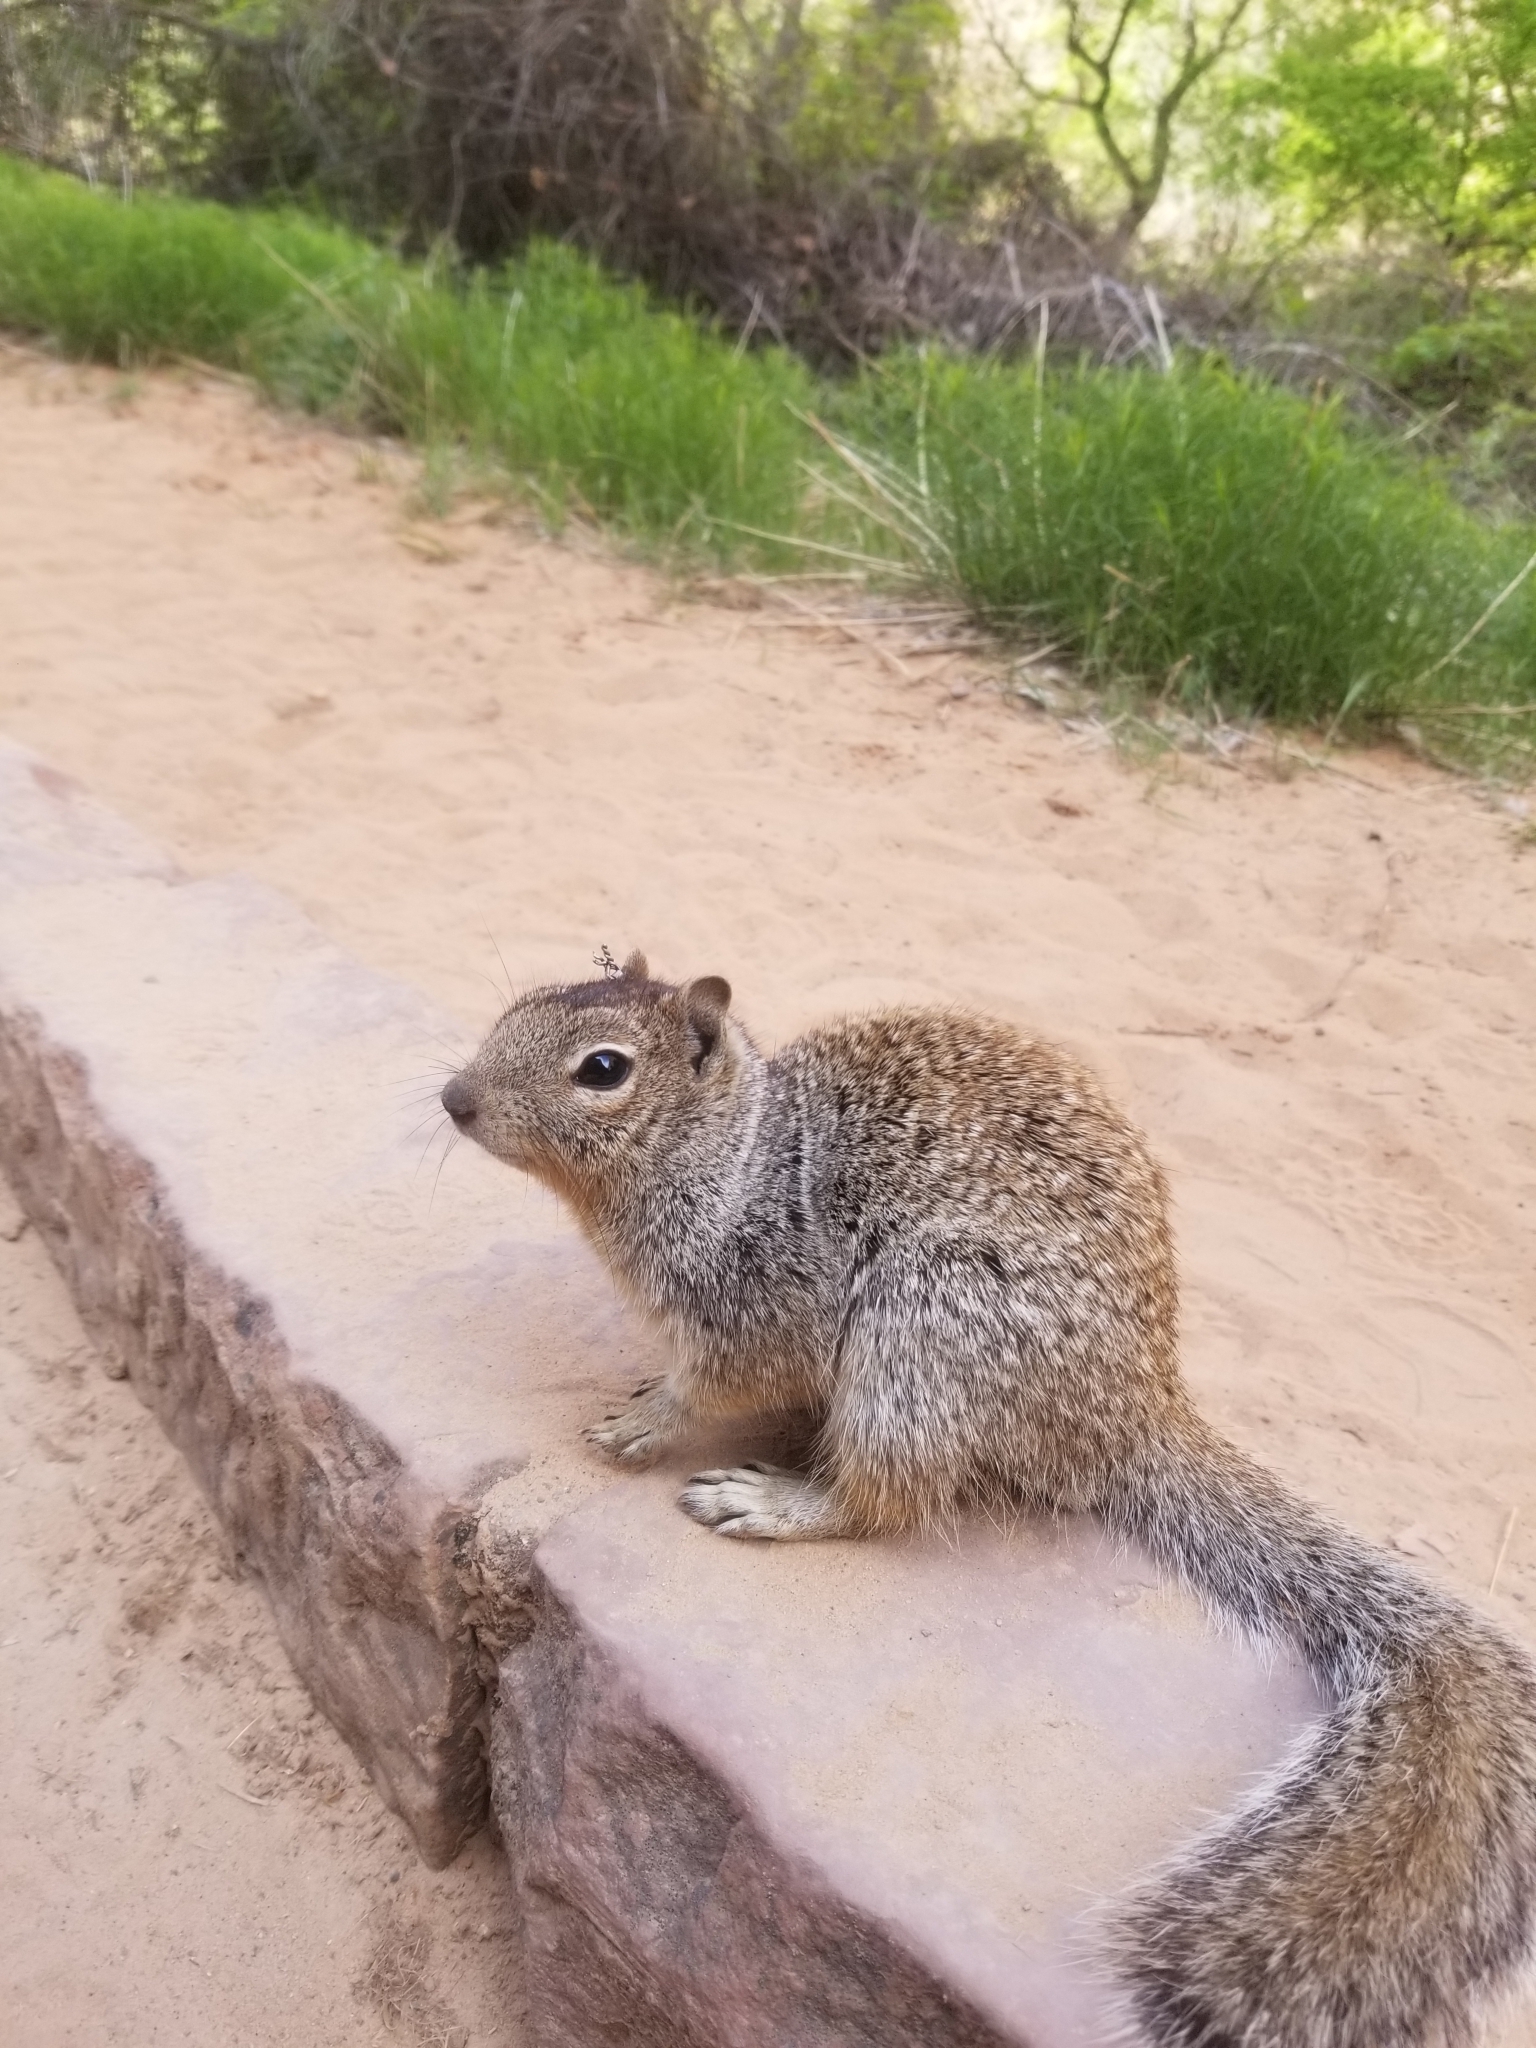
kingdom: Animalia
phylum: Chordata
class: Mammalia
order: Rodentia
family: Sciuridae
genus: Otospermophilus
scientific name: Otospermophilus variegatus
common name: Rock squirrel
